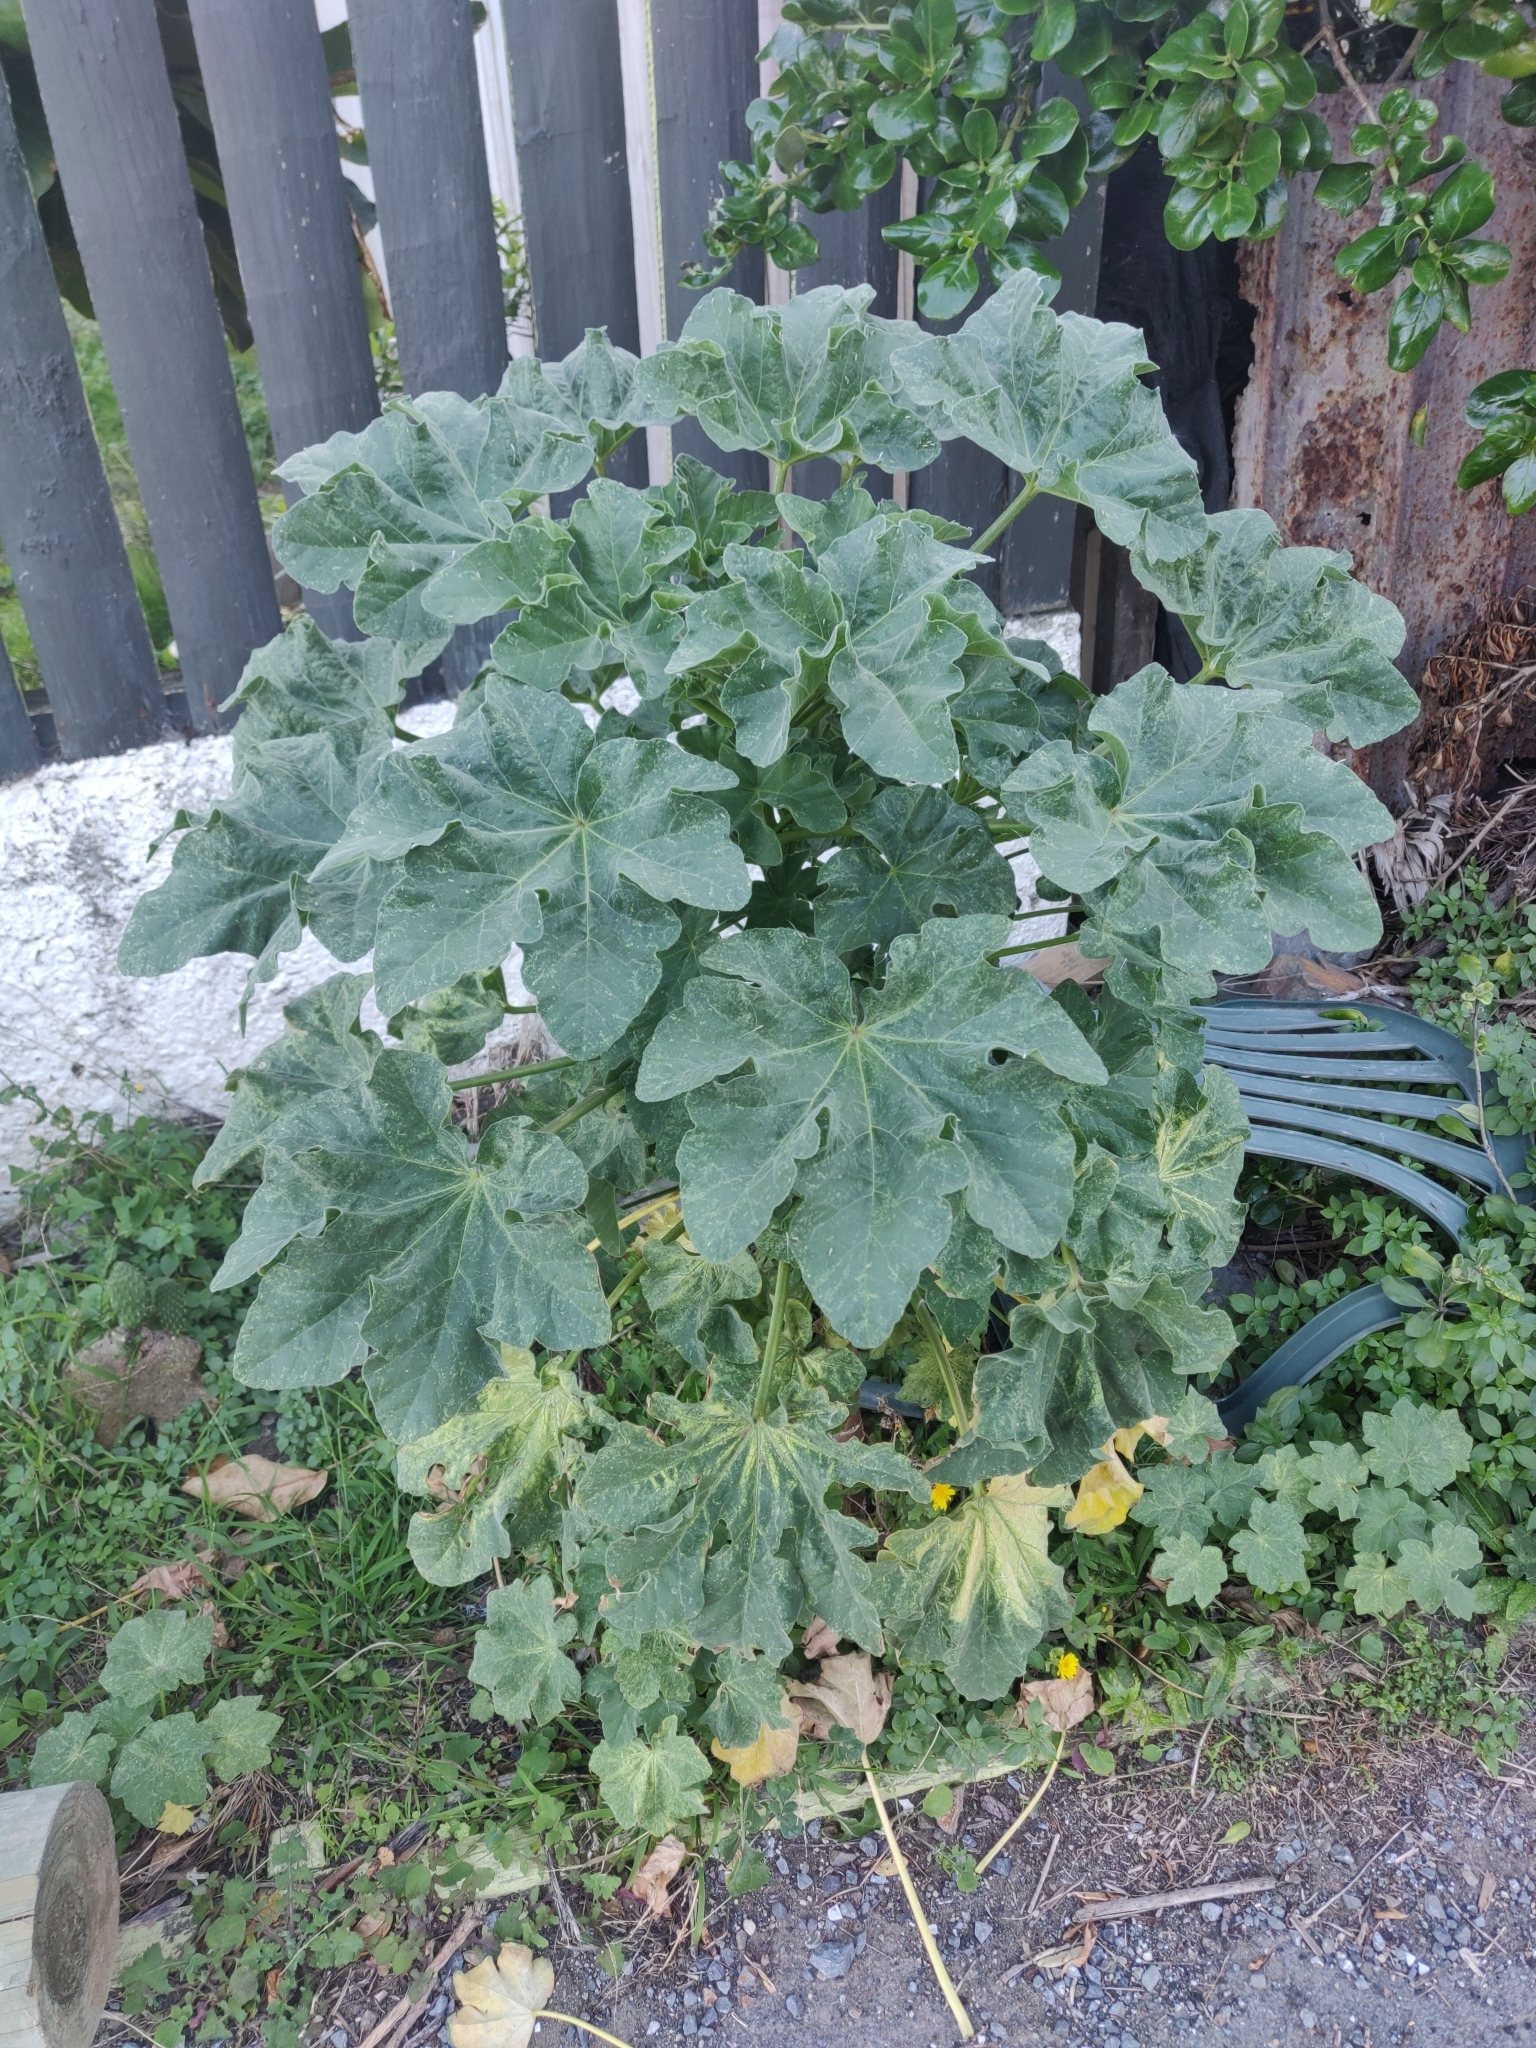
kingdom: Plantae
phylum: Tracheophyta
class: Magnoliopsida
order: Malvales
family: Malvaceae
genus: Malva
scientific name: Malva arborea
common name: Tree mallow
